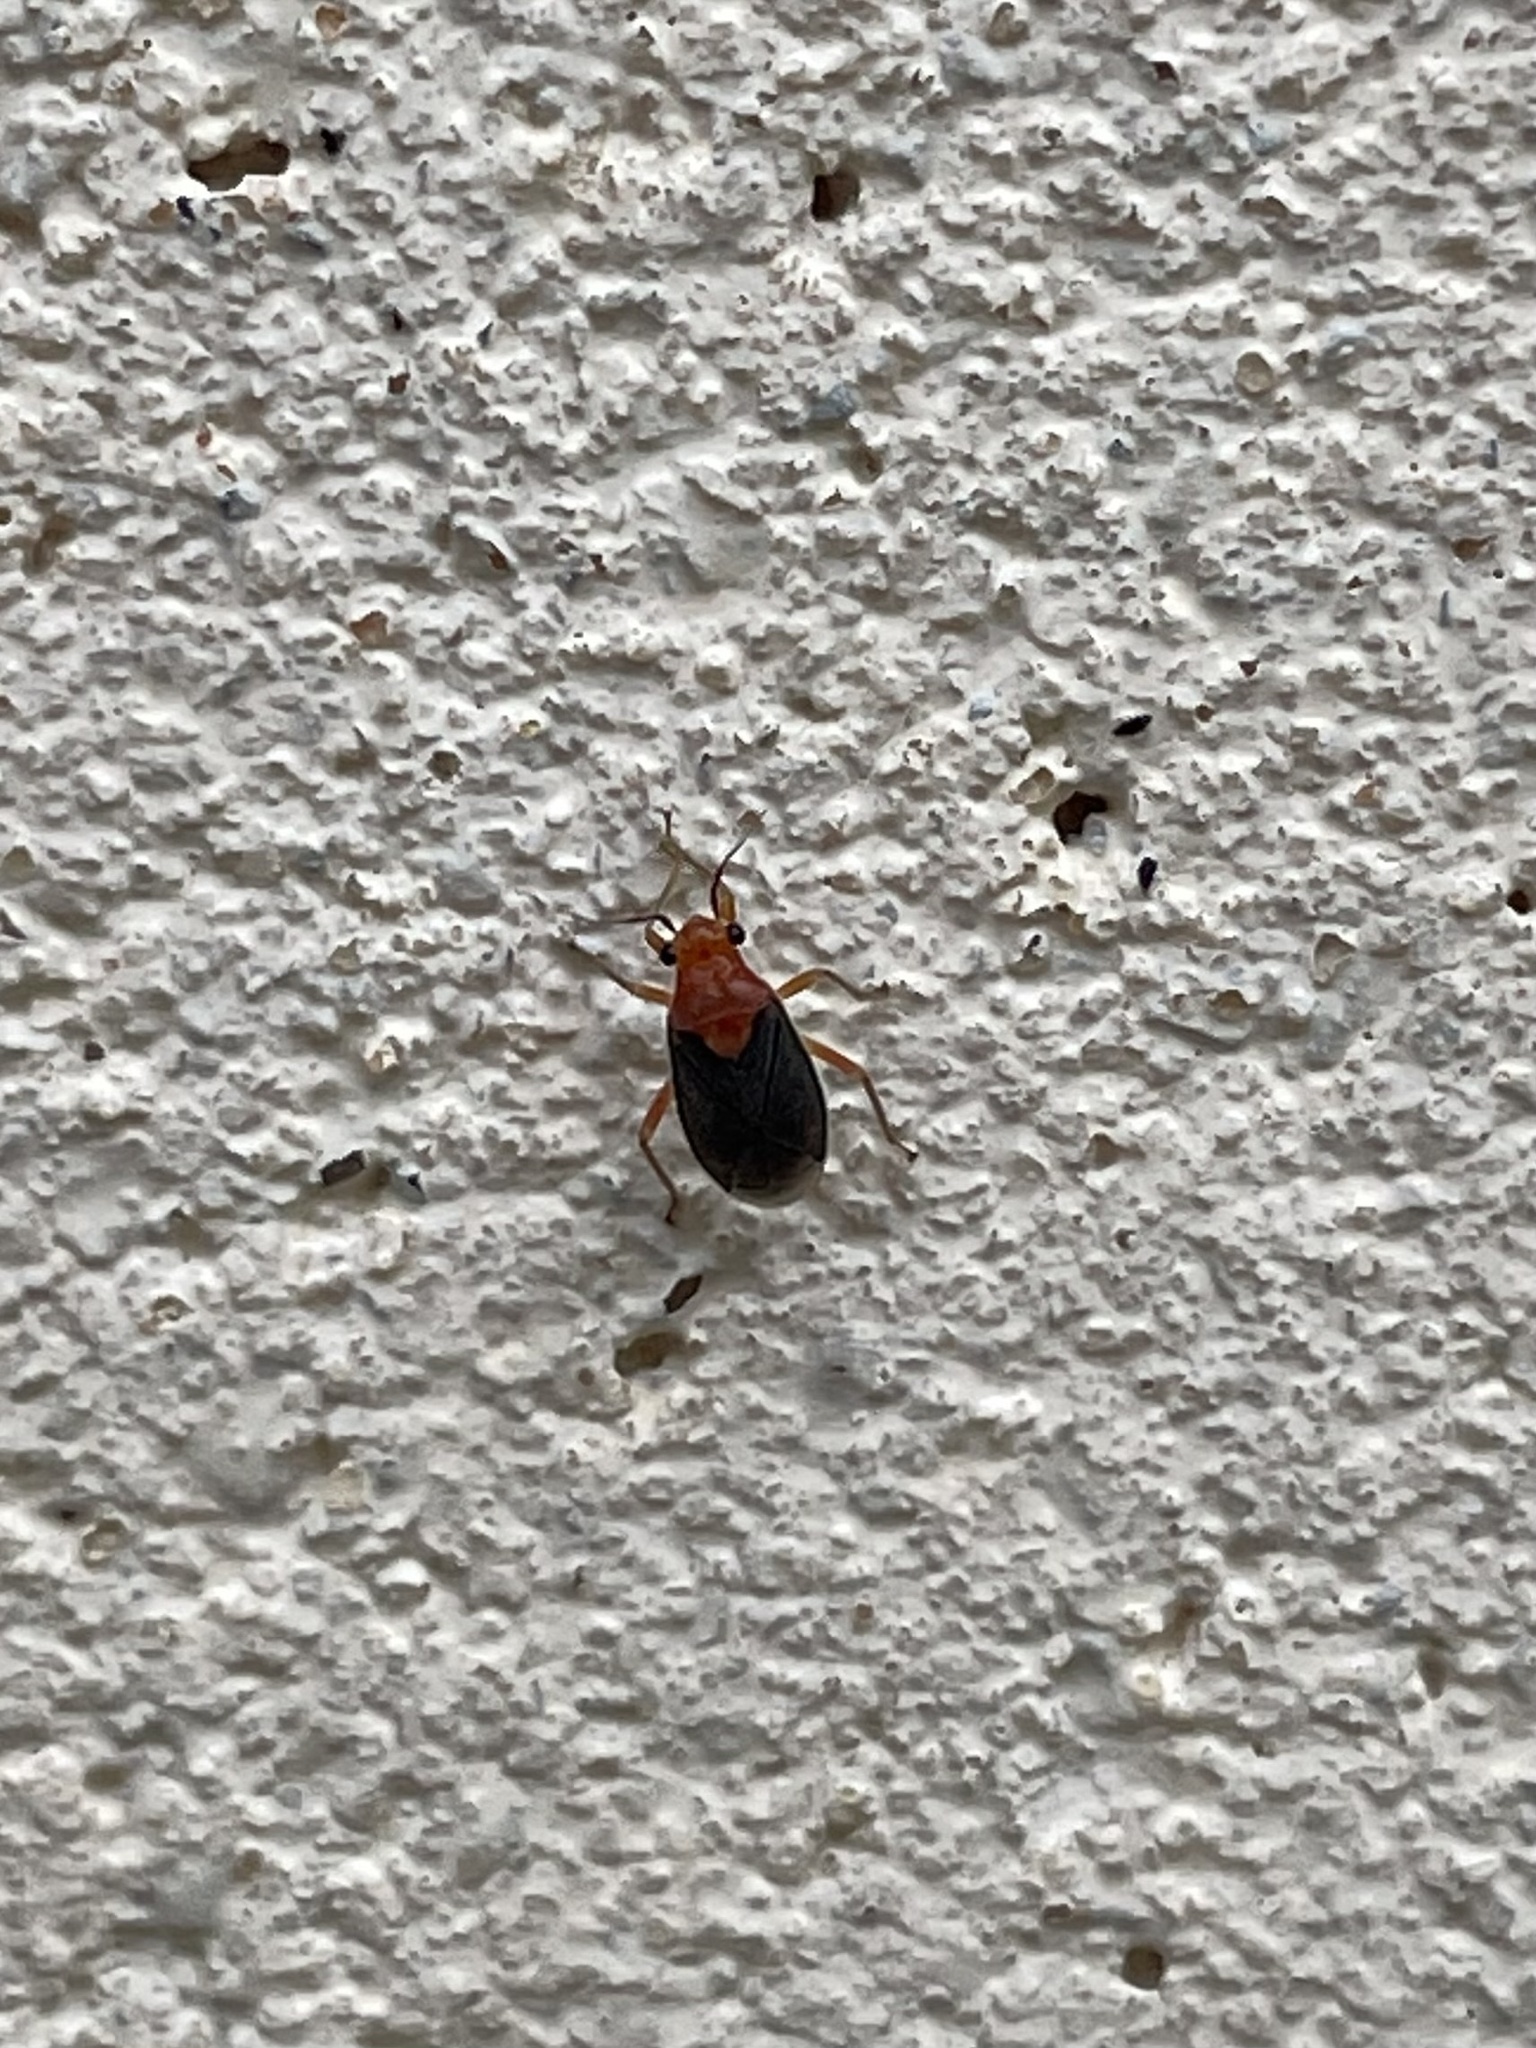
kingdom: Animalia
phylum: Arthropoda
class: Insecta
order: Hemiptera
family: Miridae
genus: Halticotoma
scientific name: Halticotoma valida
